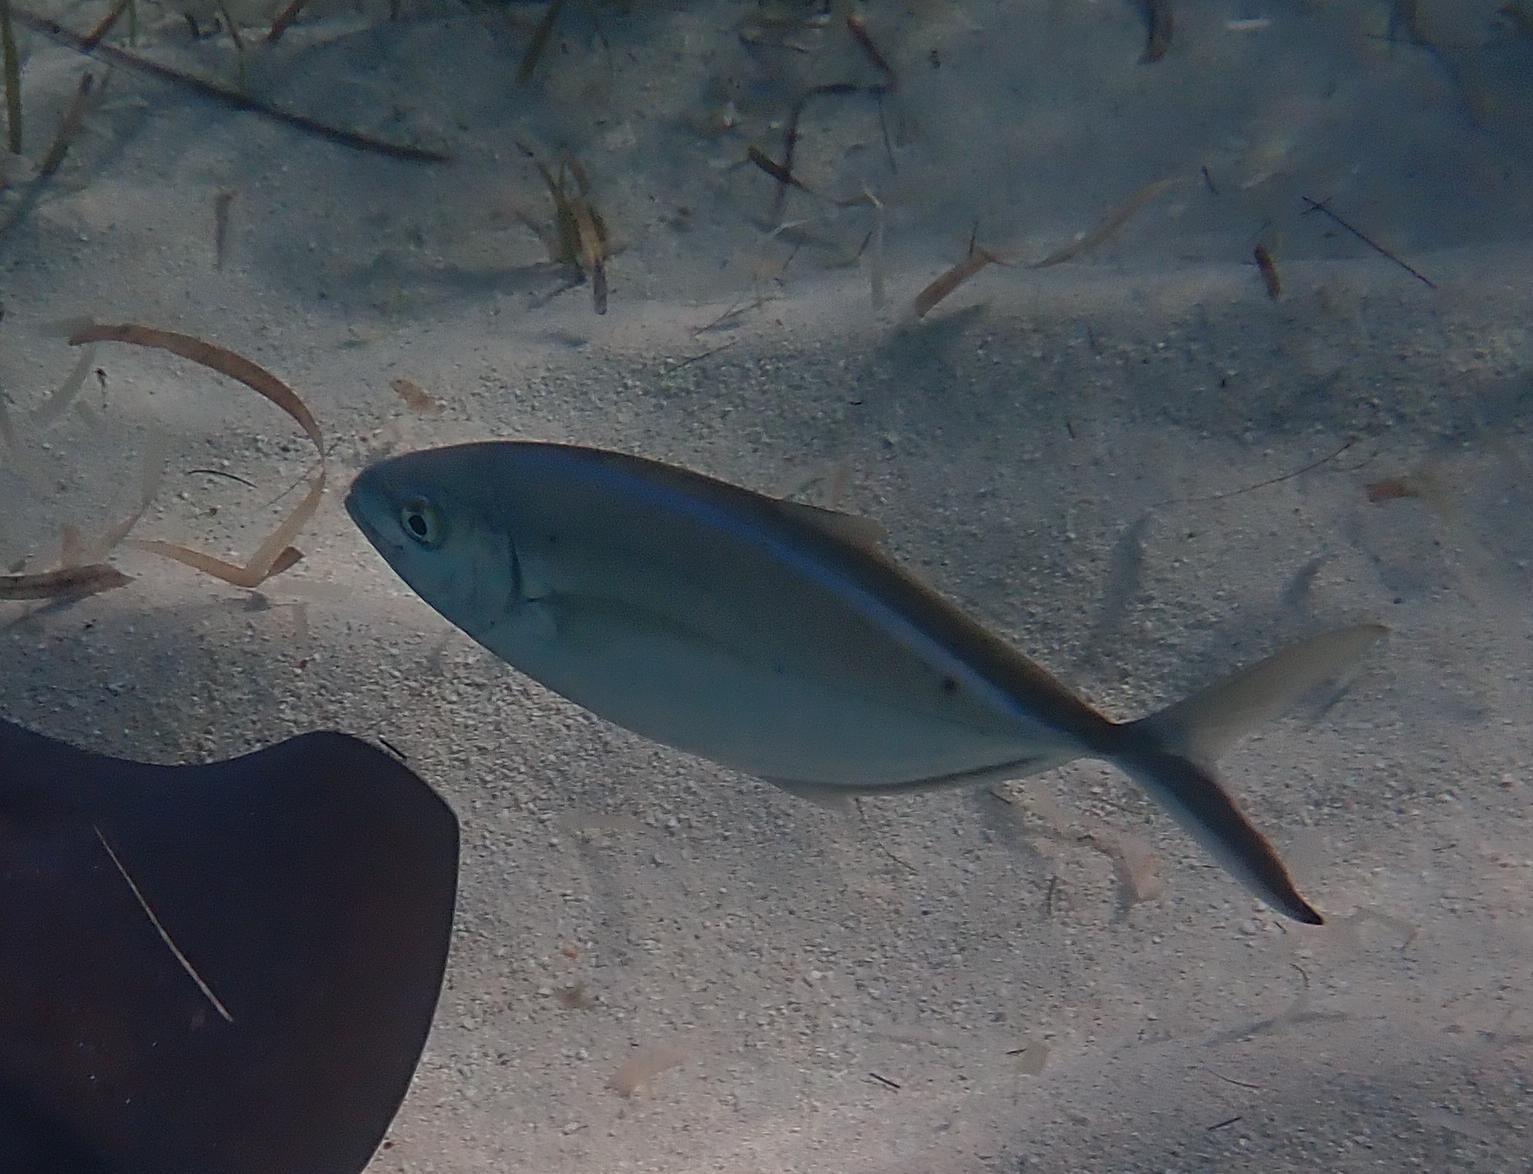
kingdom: Animalia
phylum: Chordata
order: Perciformes
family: Carangidae
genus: Caranx
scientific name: Caranx ruber
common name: Bar jack
